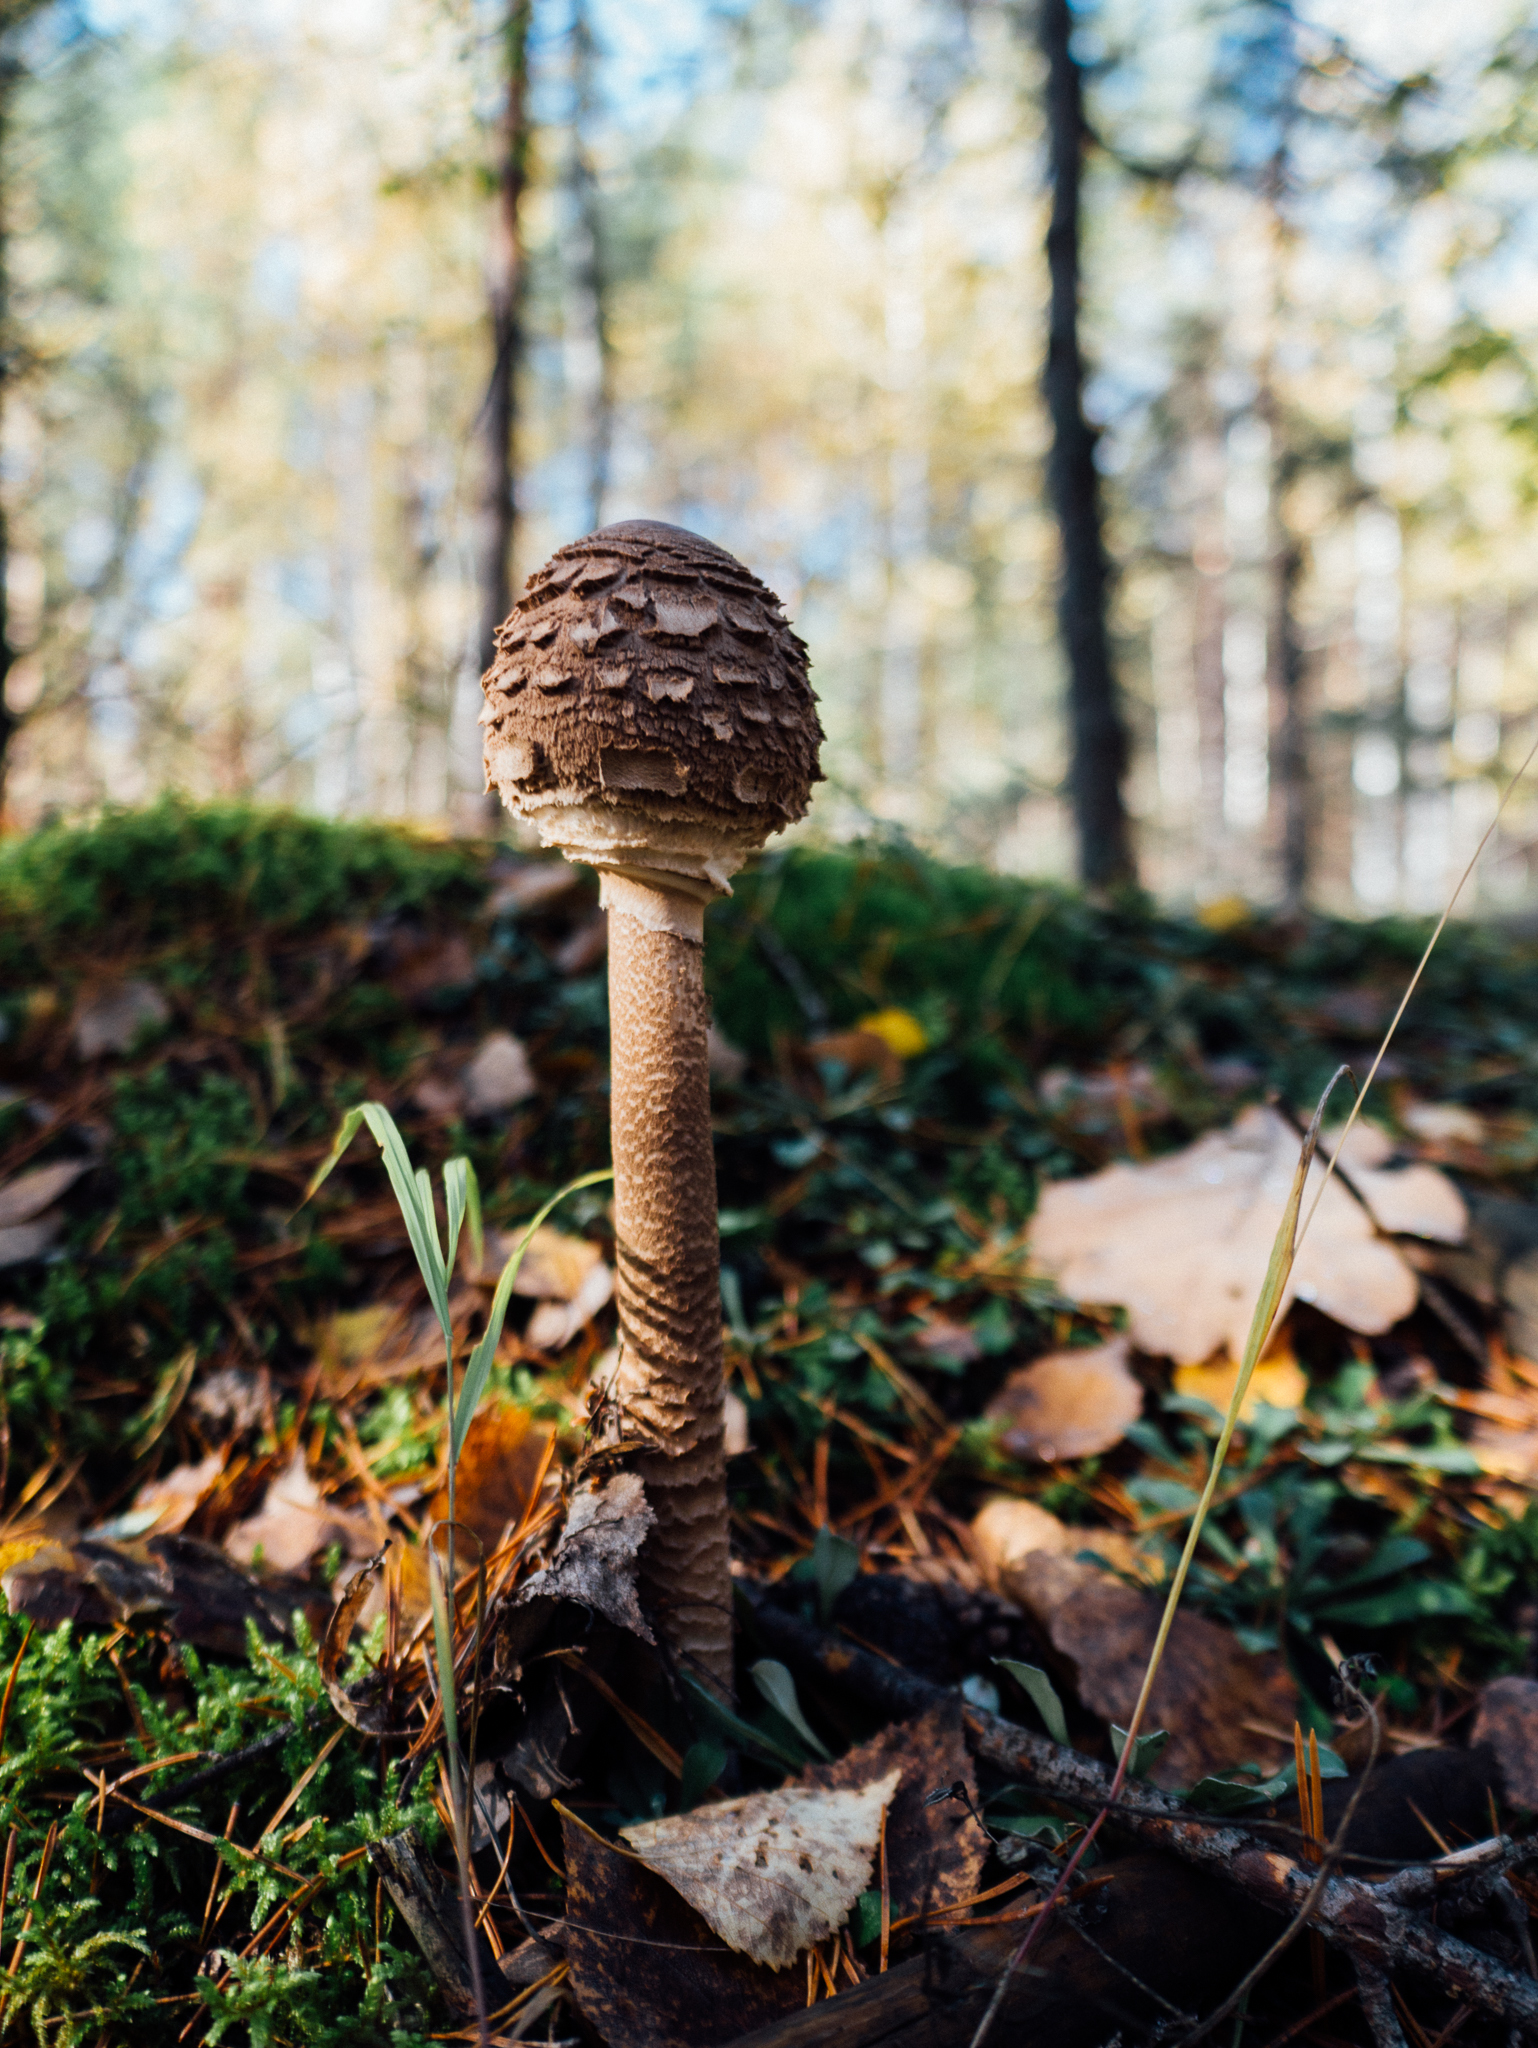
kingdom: Fungi
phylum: Basidiomycota
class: Agaricomycetes
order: Agaricales
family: Agaricaceae
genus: Macrolepiota
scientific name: Macrolepiota procera
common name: Parasol
